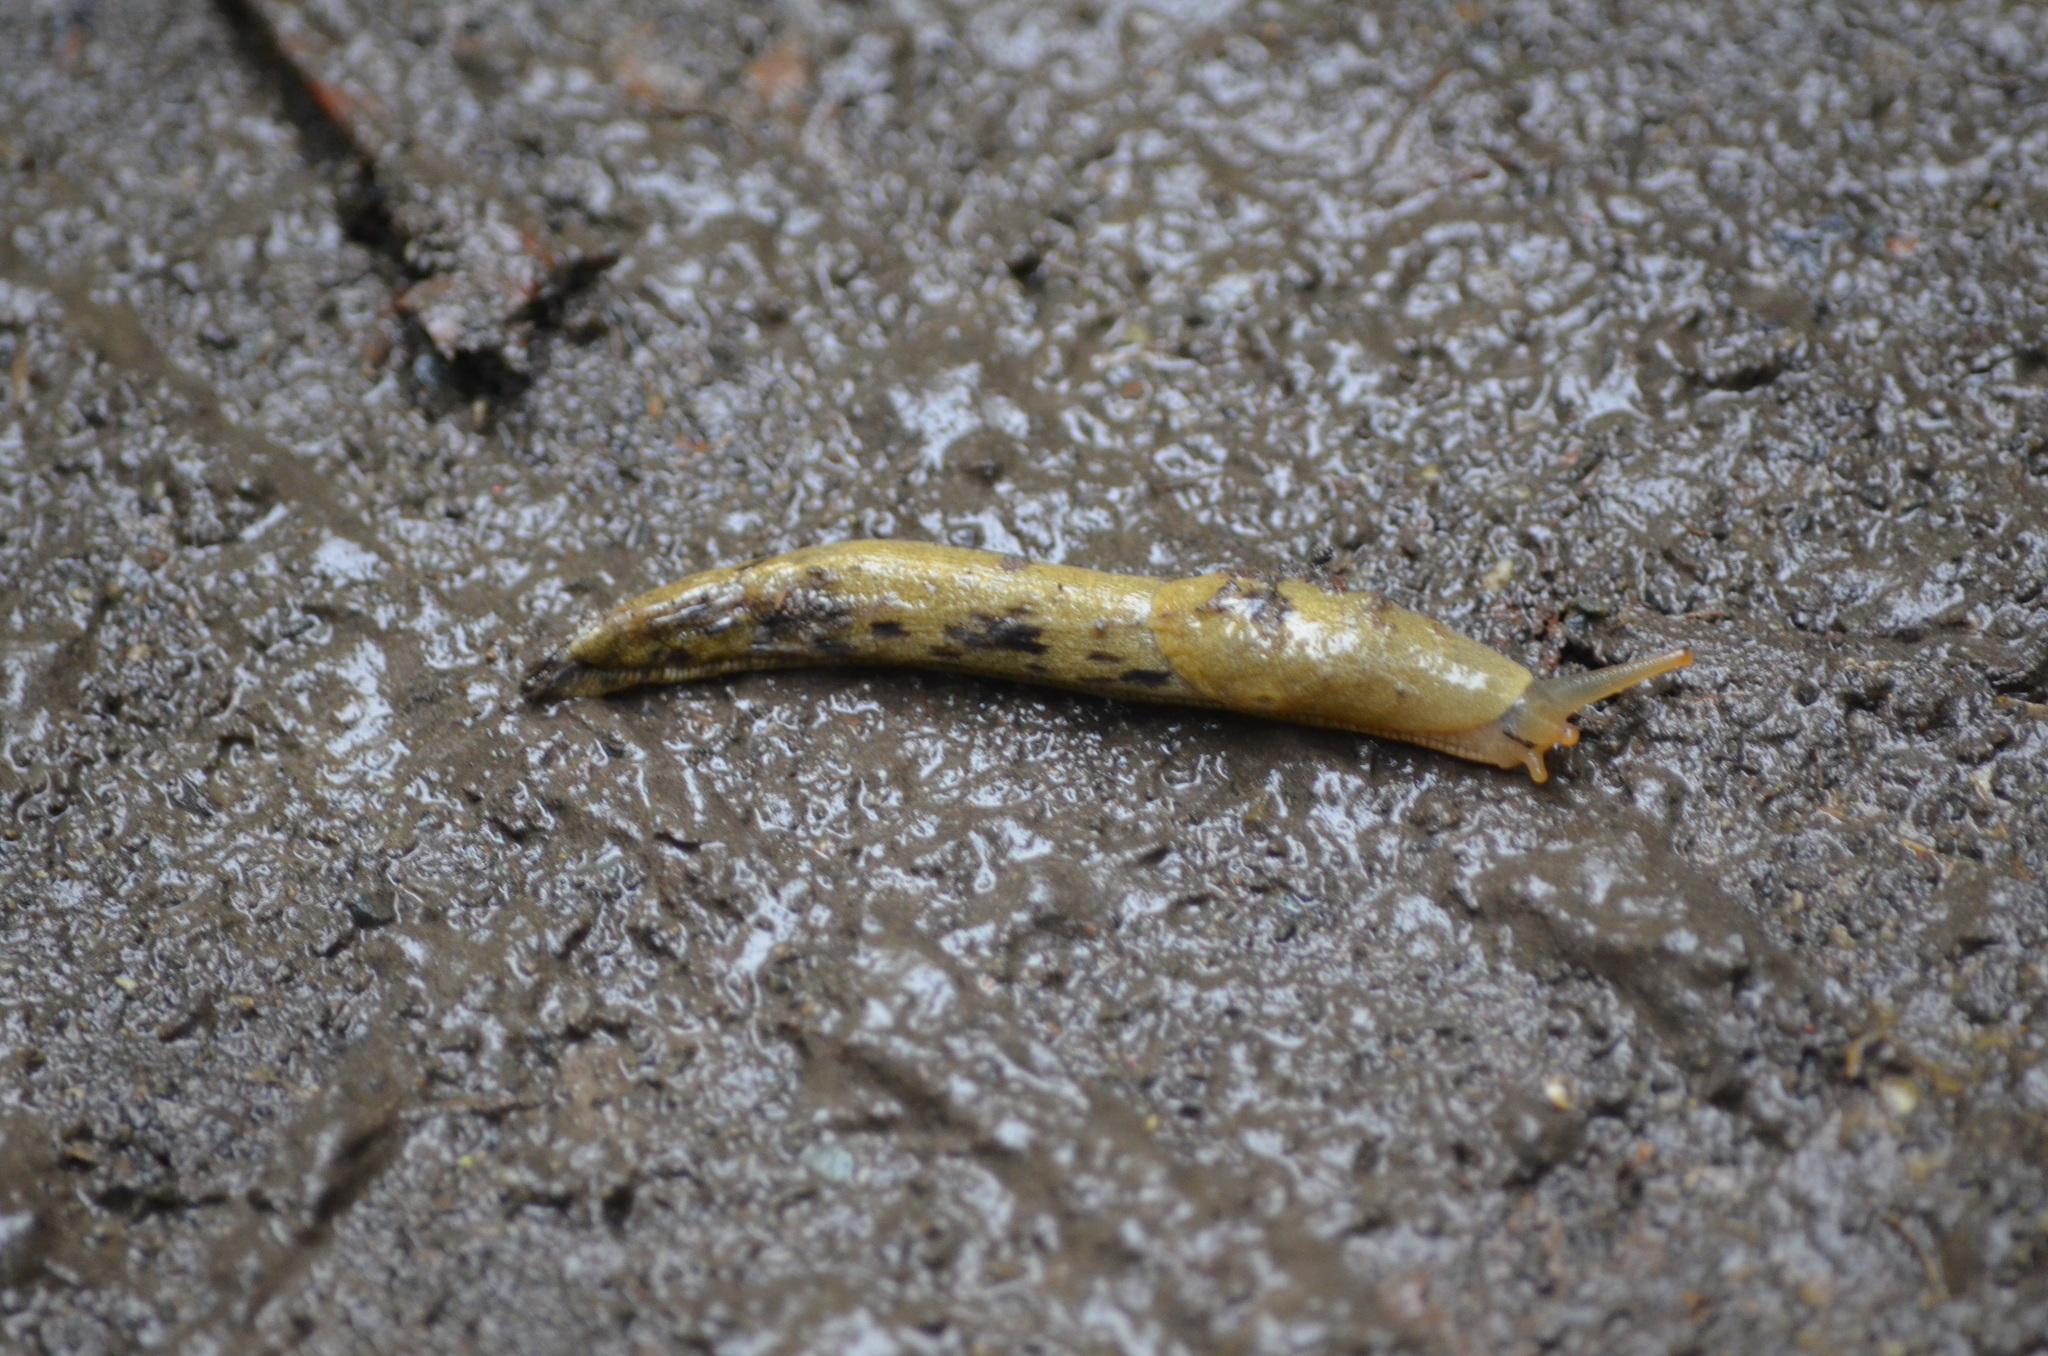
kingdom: Animalia
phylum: Mollusca
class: Gastropoda
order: Stylommatophora
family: Ariolimacidae
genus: Ariolimax
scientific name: Ariolimax columbianus
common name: Pacific banana slug
